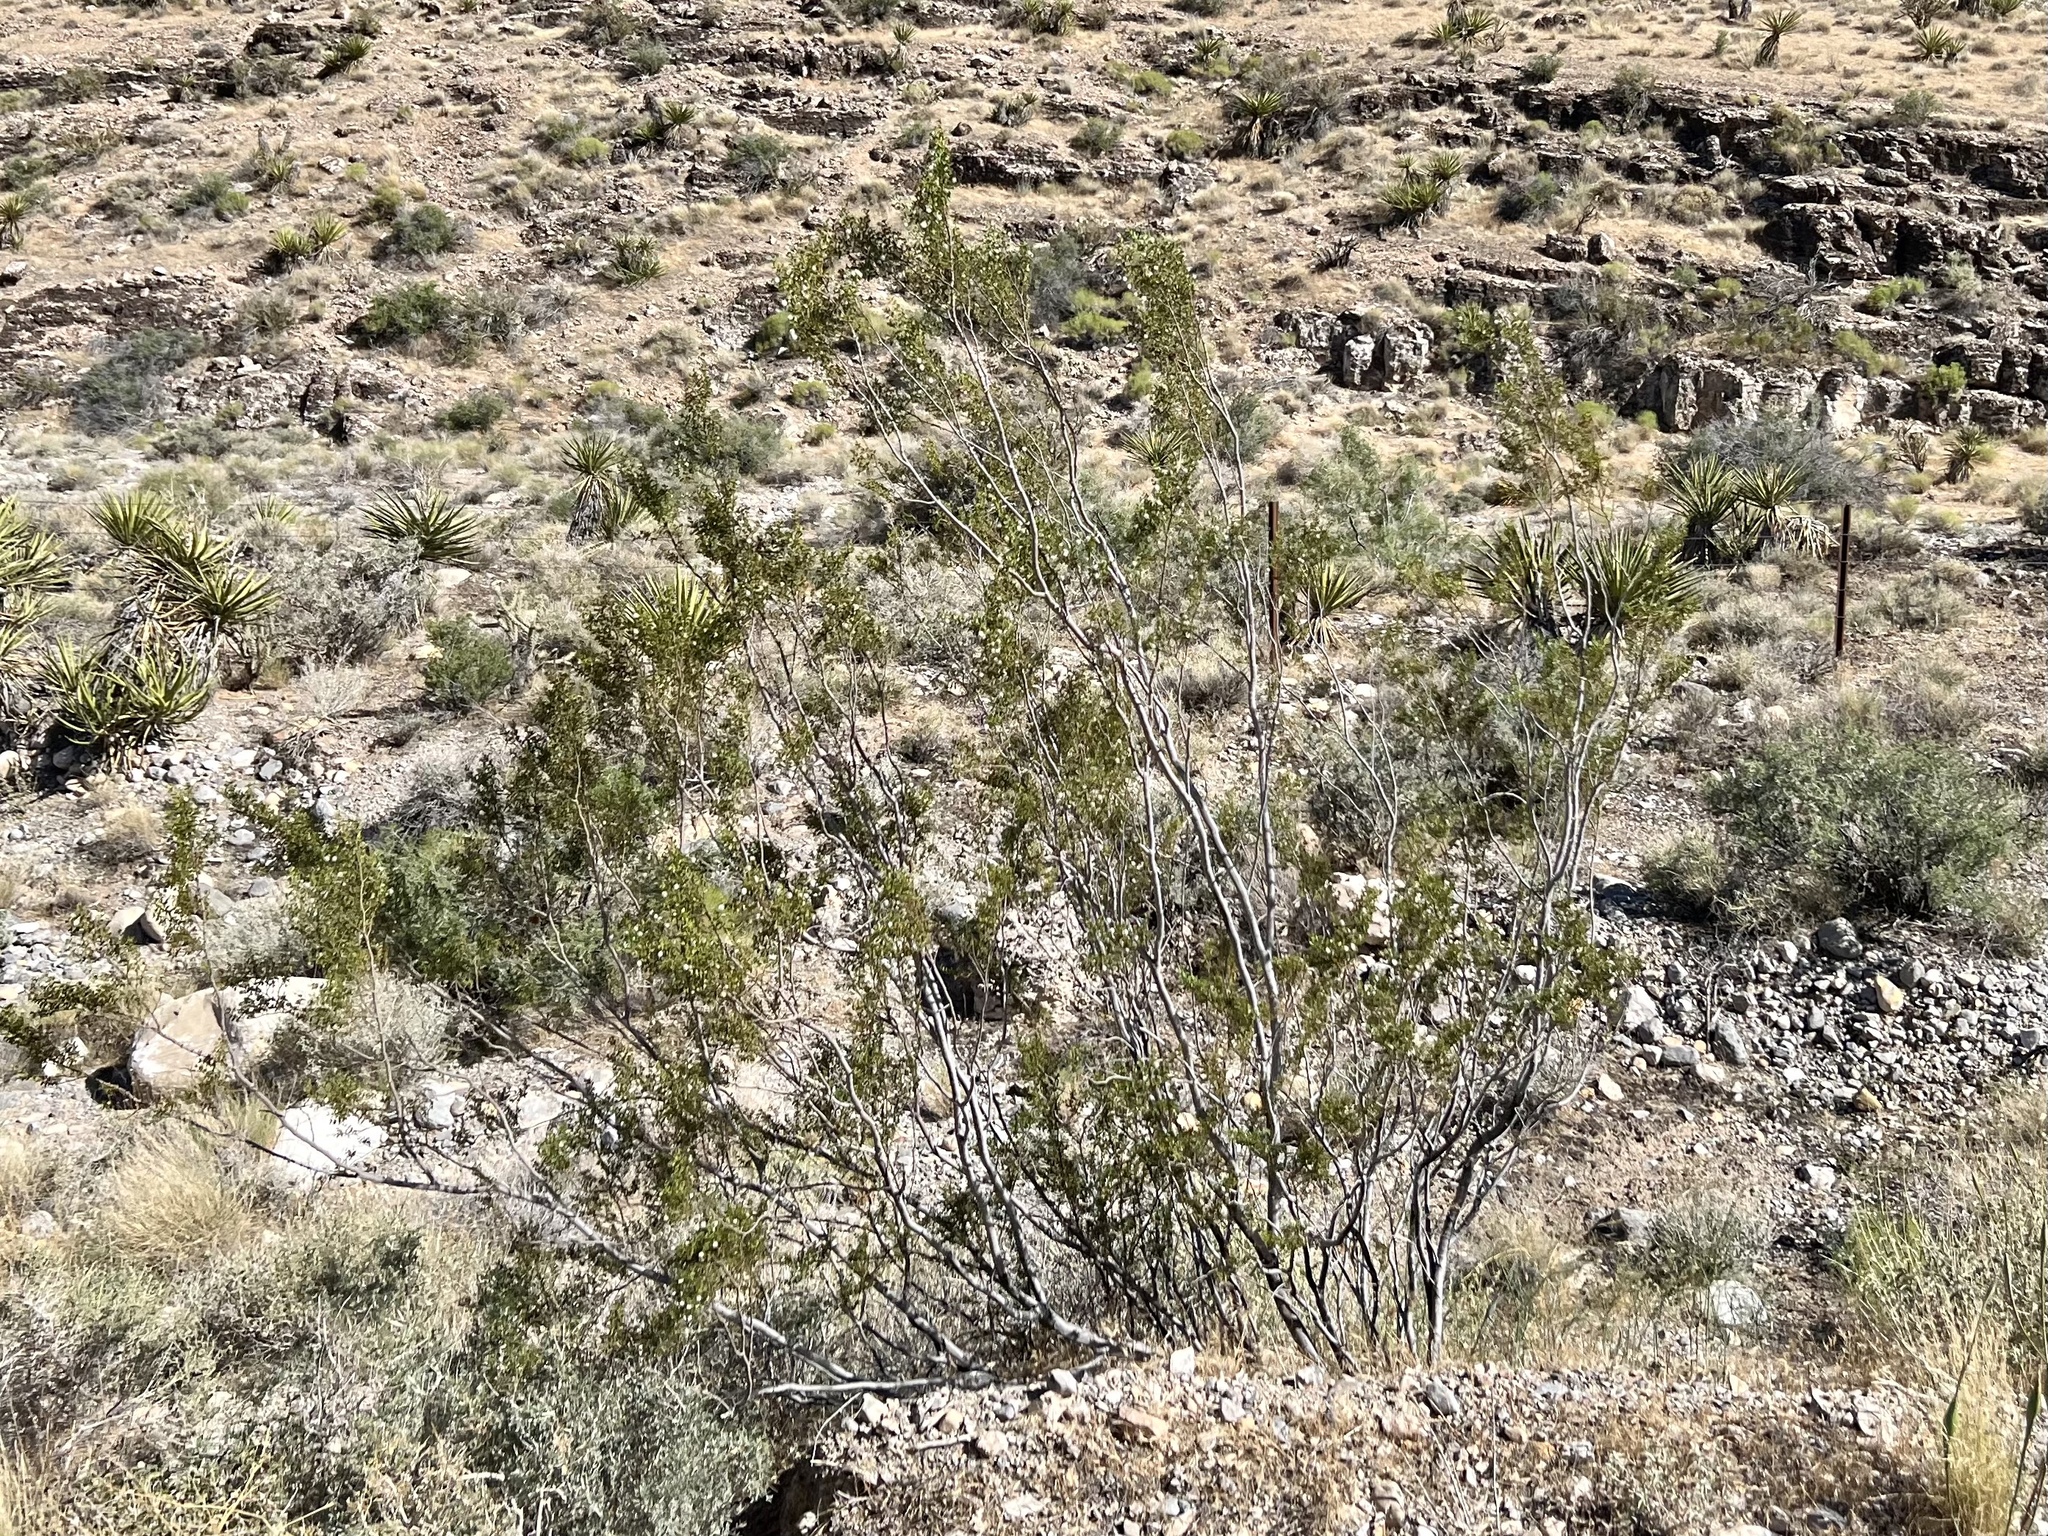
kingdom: Plantae
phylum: Tracheophyta
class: Magnoliopsida
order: Zygophyllales
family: Zygophyllaceae
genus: Larrea
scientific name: Larrea tridentata
